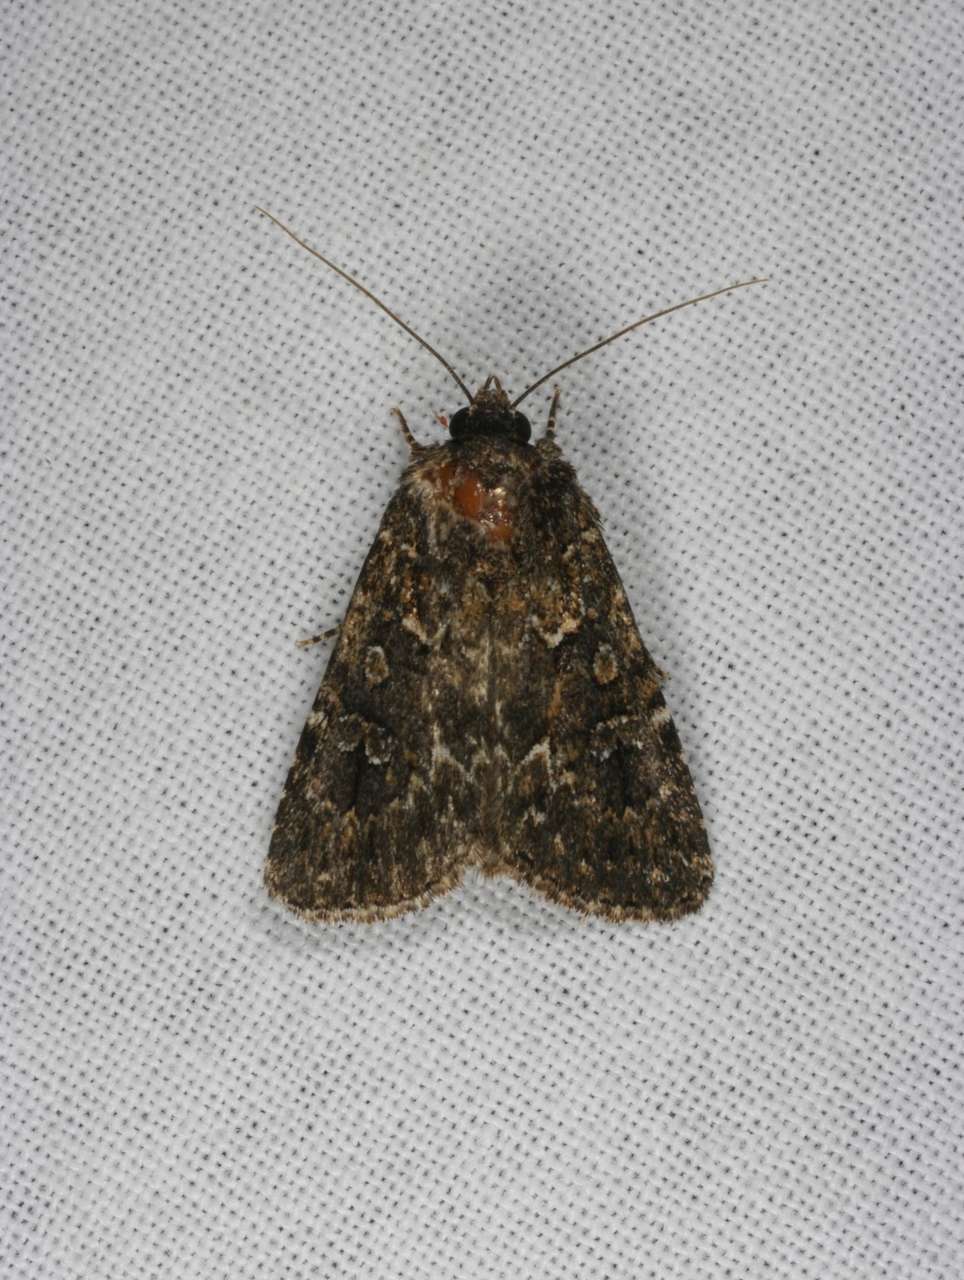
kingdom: Animalia
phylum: Arthropoda
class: Insecta
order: Lepidoptera
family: Noctuidae
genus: Ectopatria
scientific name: Ectopatria subrufescens
